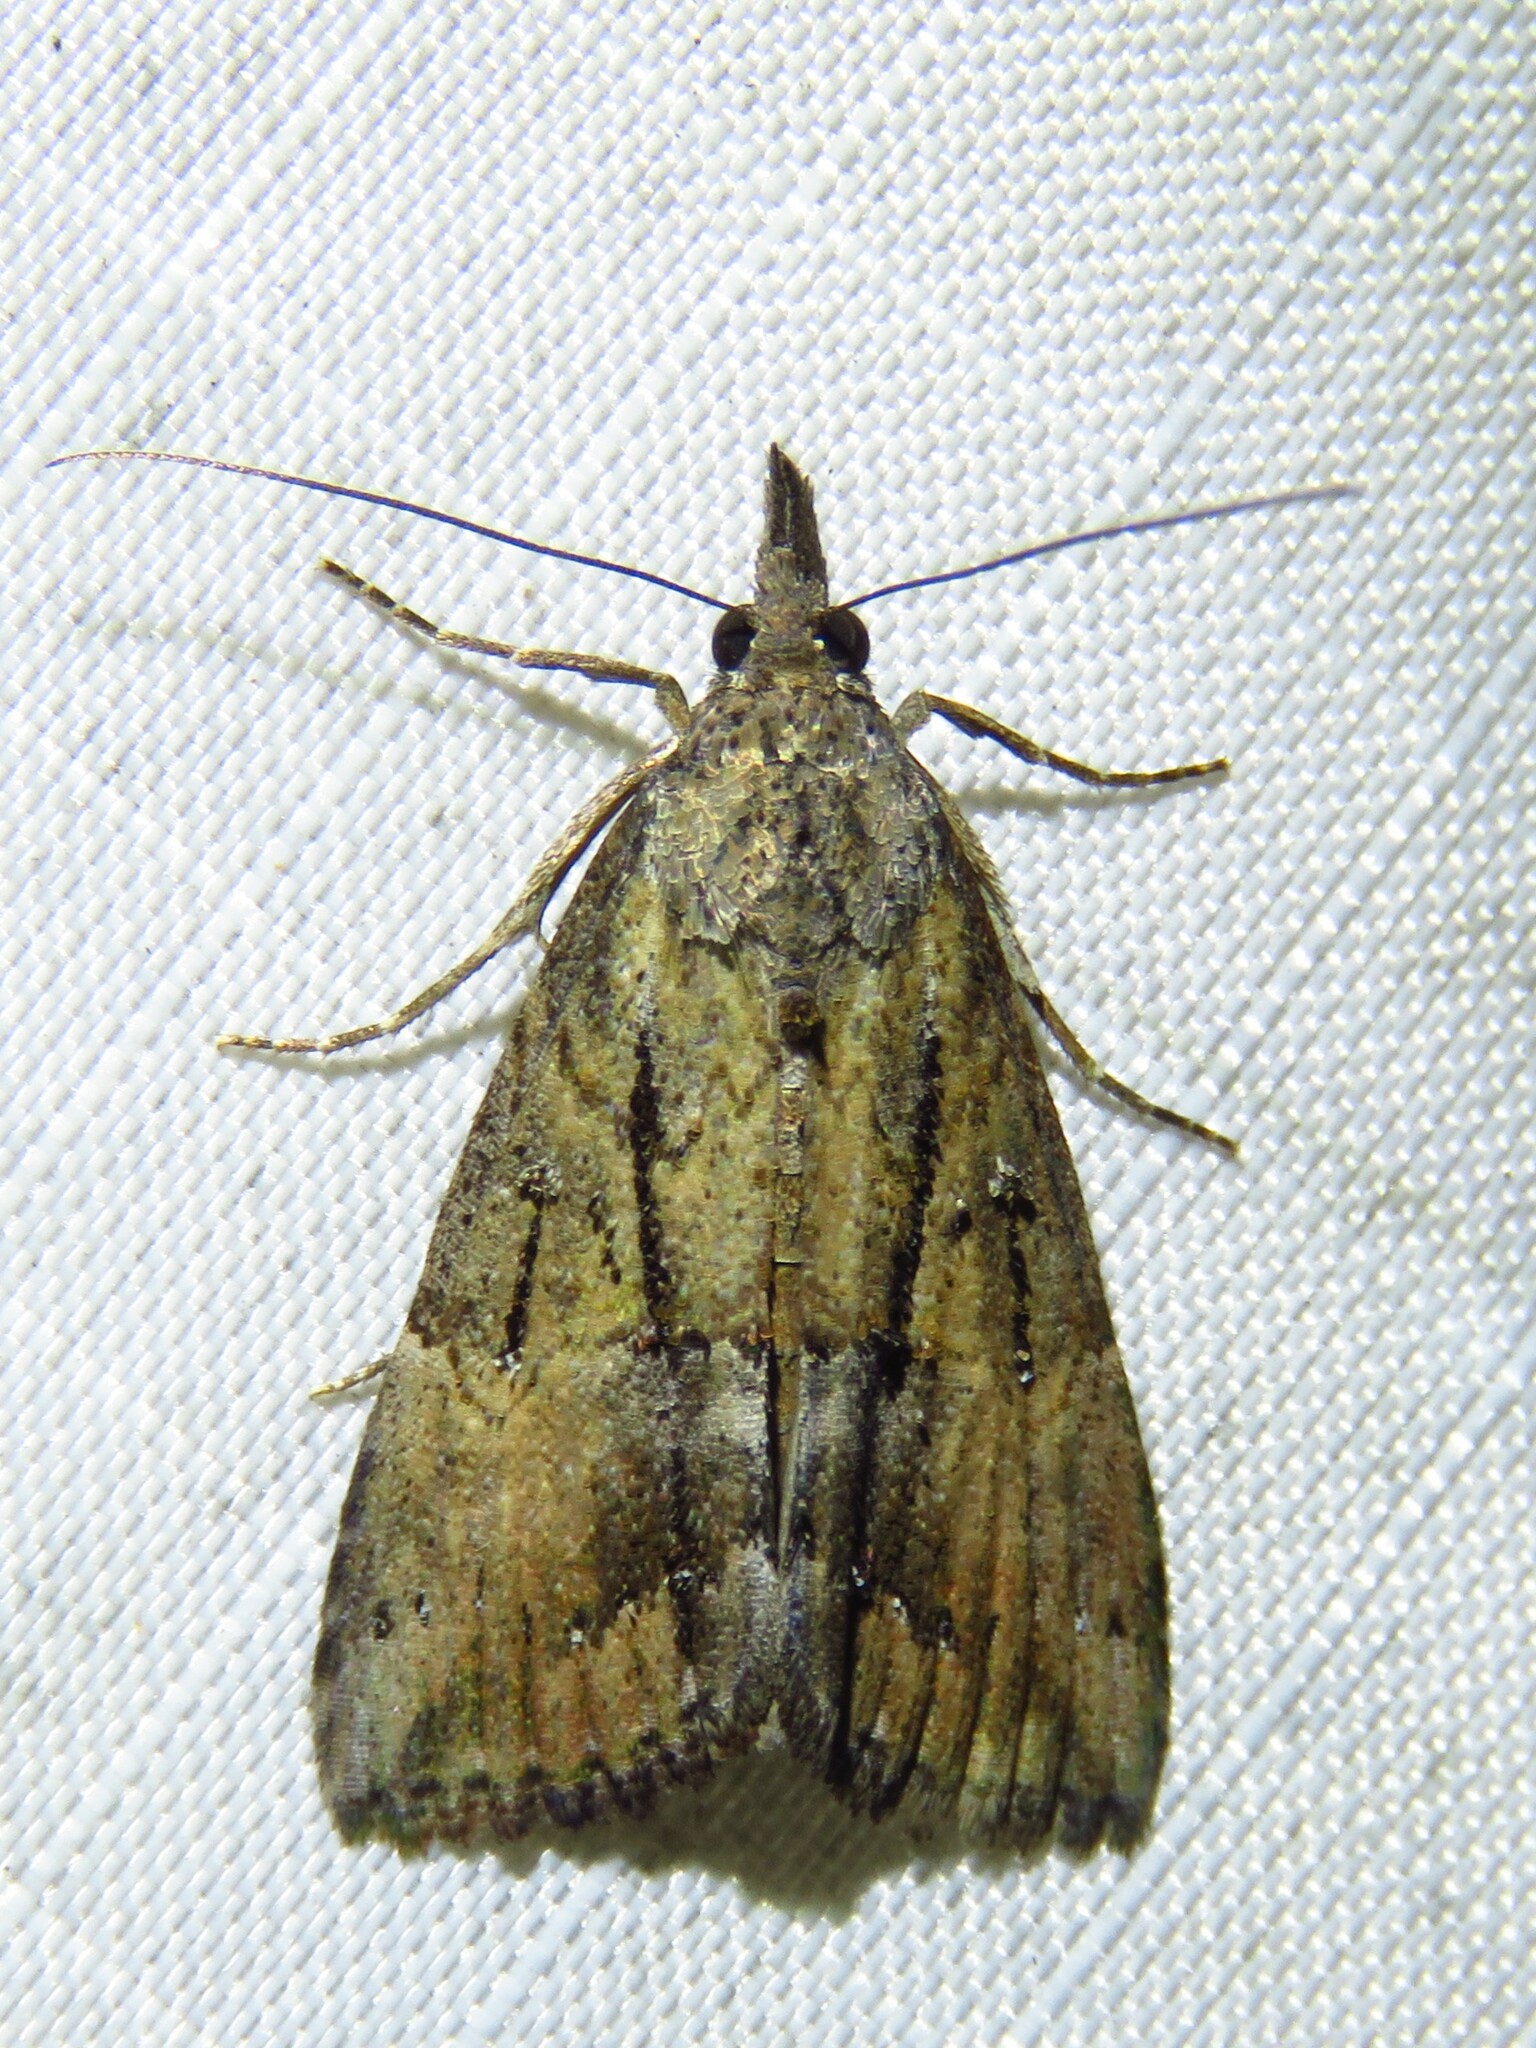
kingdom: Animalia
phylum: Arthropoda
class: Insecta
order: Lepidoptera
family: Erebidae
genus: Hypena
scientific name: Hypena scabra
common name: Green cloverworm
